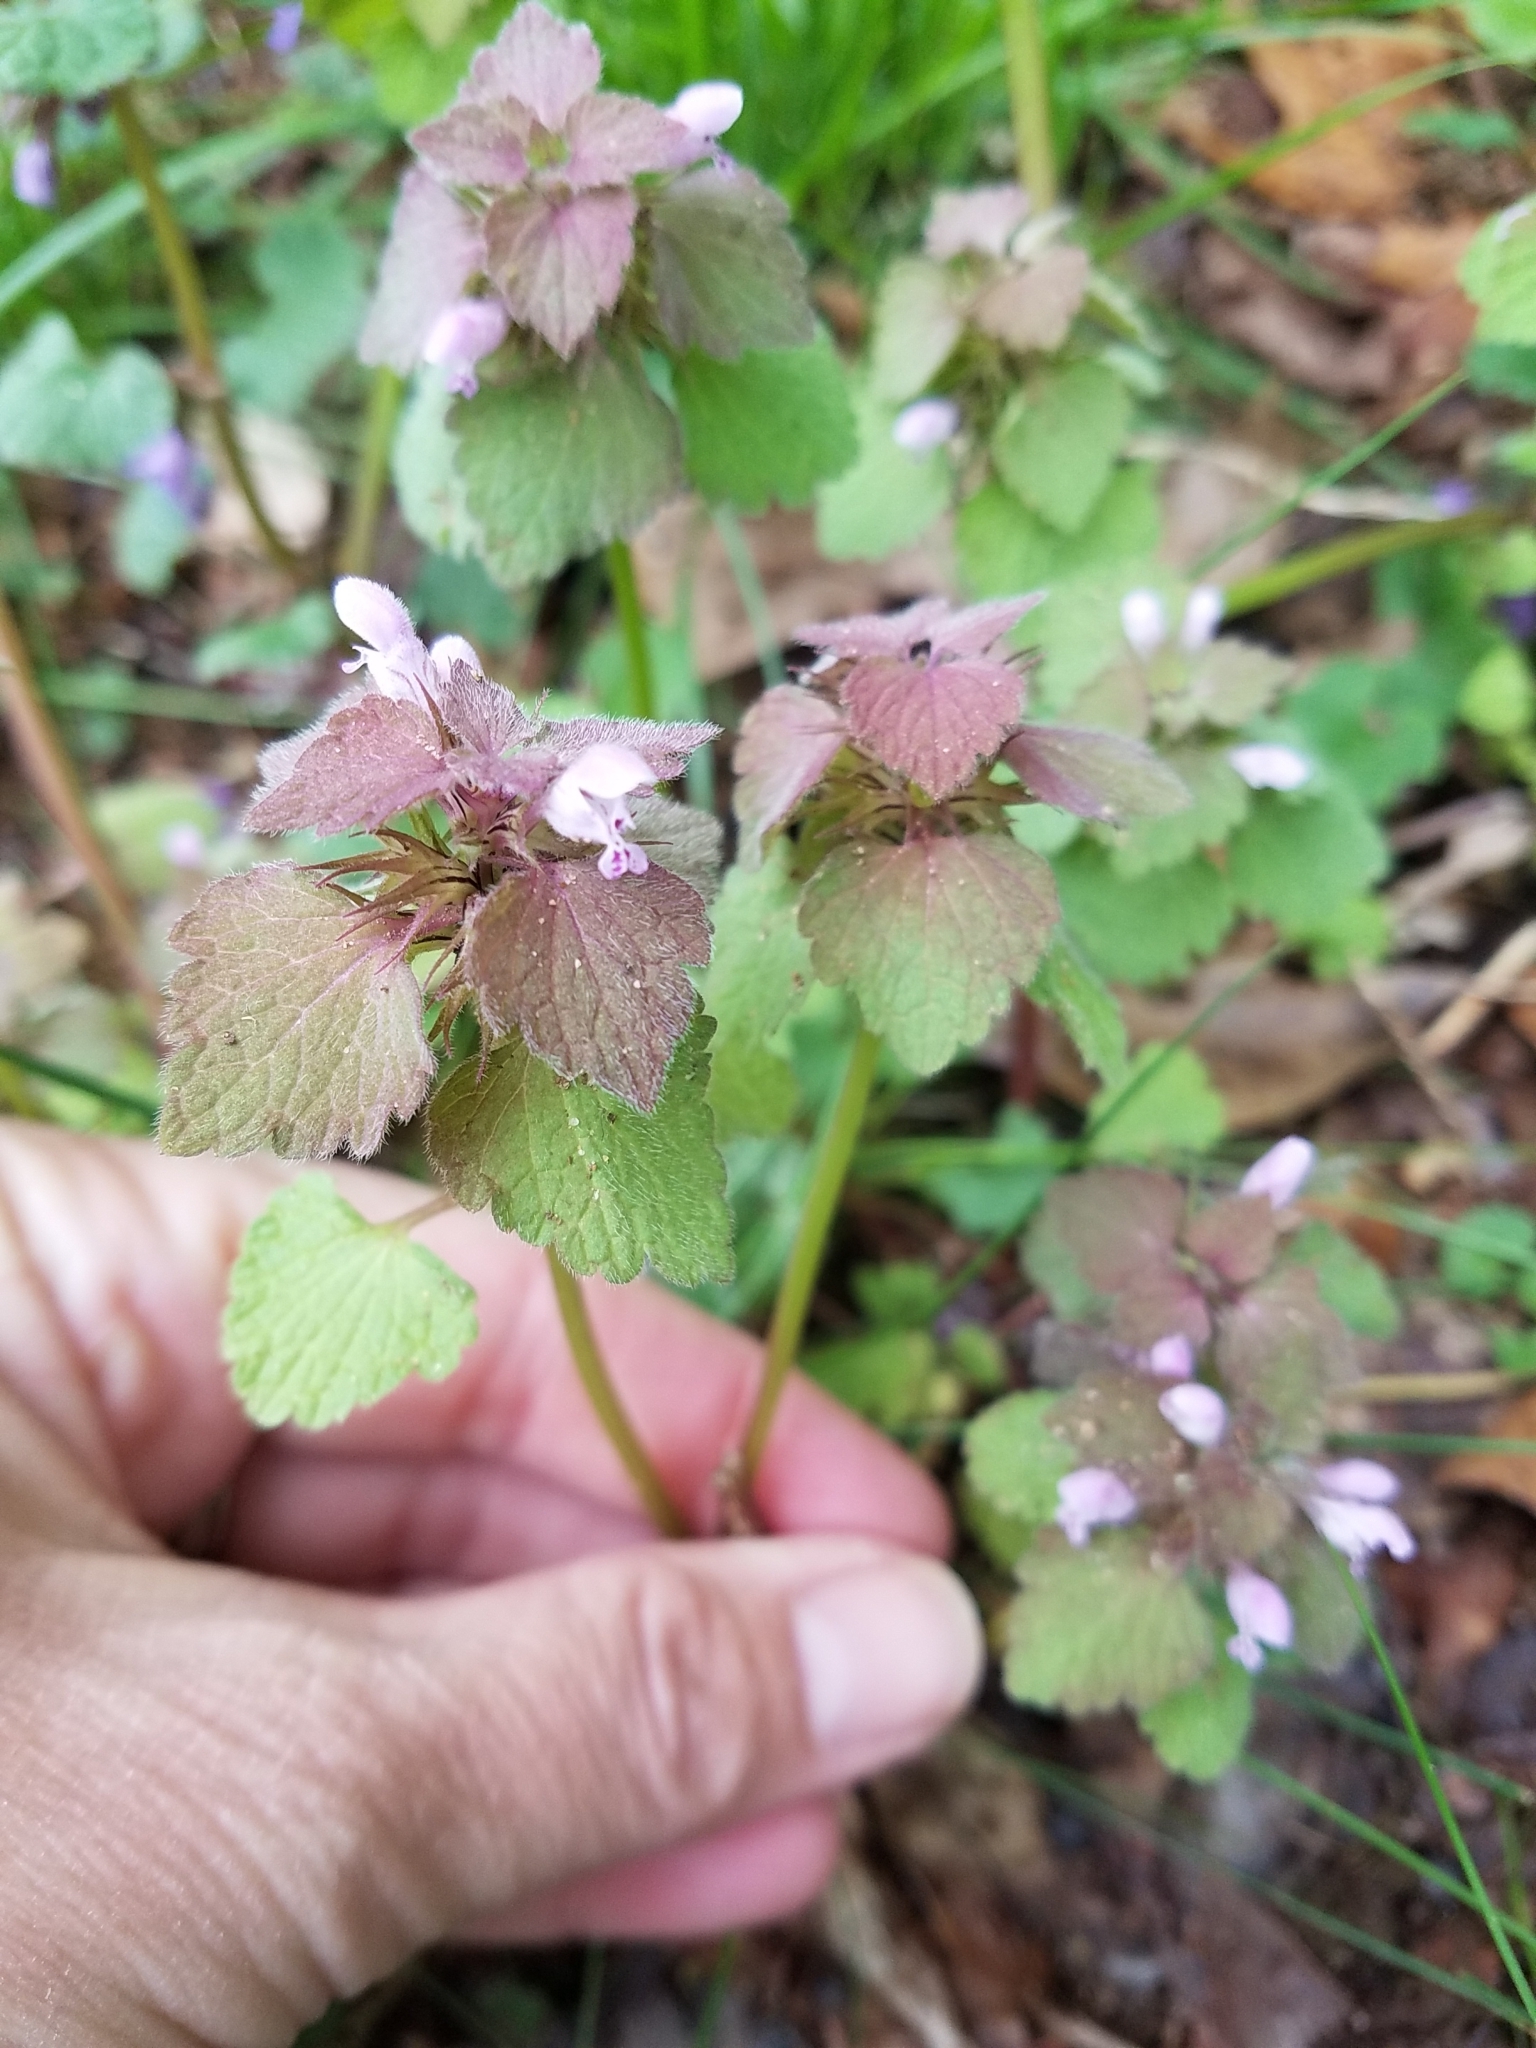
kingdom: Plantae
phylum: Tracheophyta
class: Magnoliopsida
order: Lamiales
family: Lamiaceae
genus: Lamium
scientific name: Lamium purpureum
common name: Red dead-nettle
